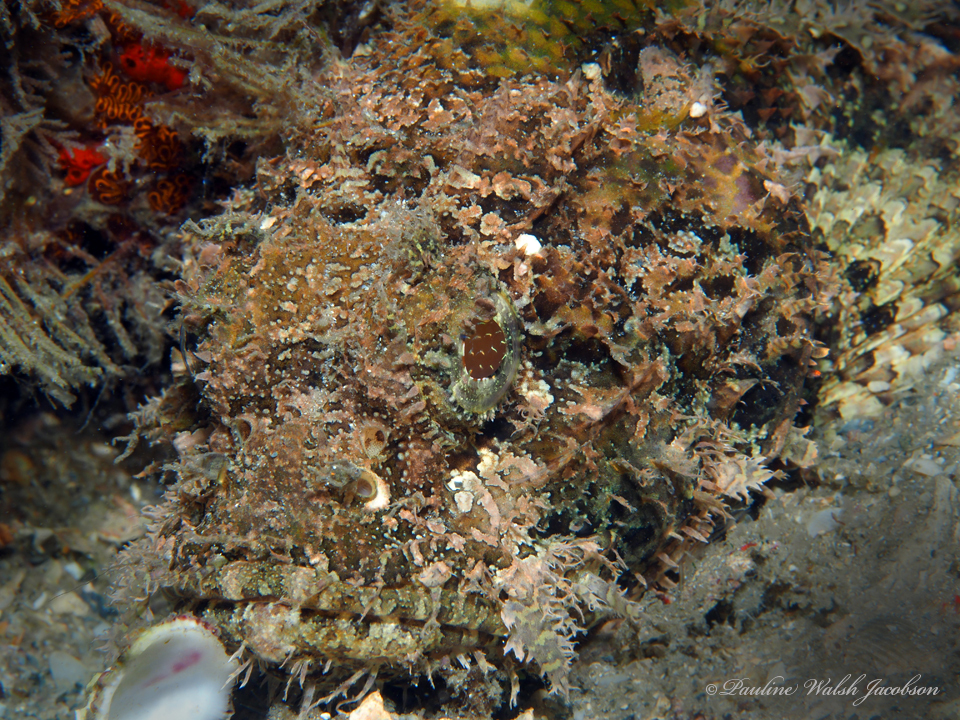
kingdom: Animalia
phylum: Chordata
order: Scorpaeniformes
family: Scorpaenidae
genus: Scorpaena
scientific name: Scorpaena plumieri
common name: Spotted scorpionfish
